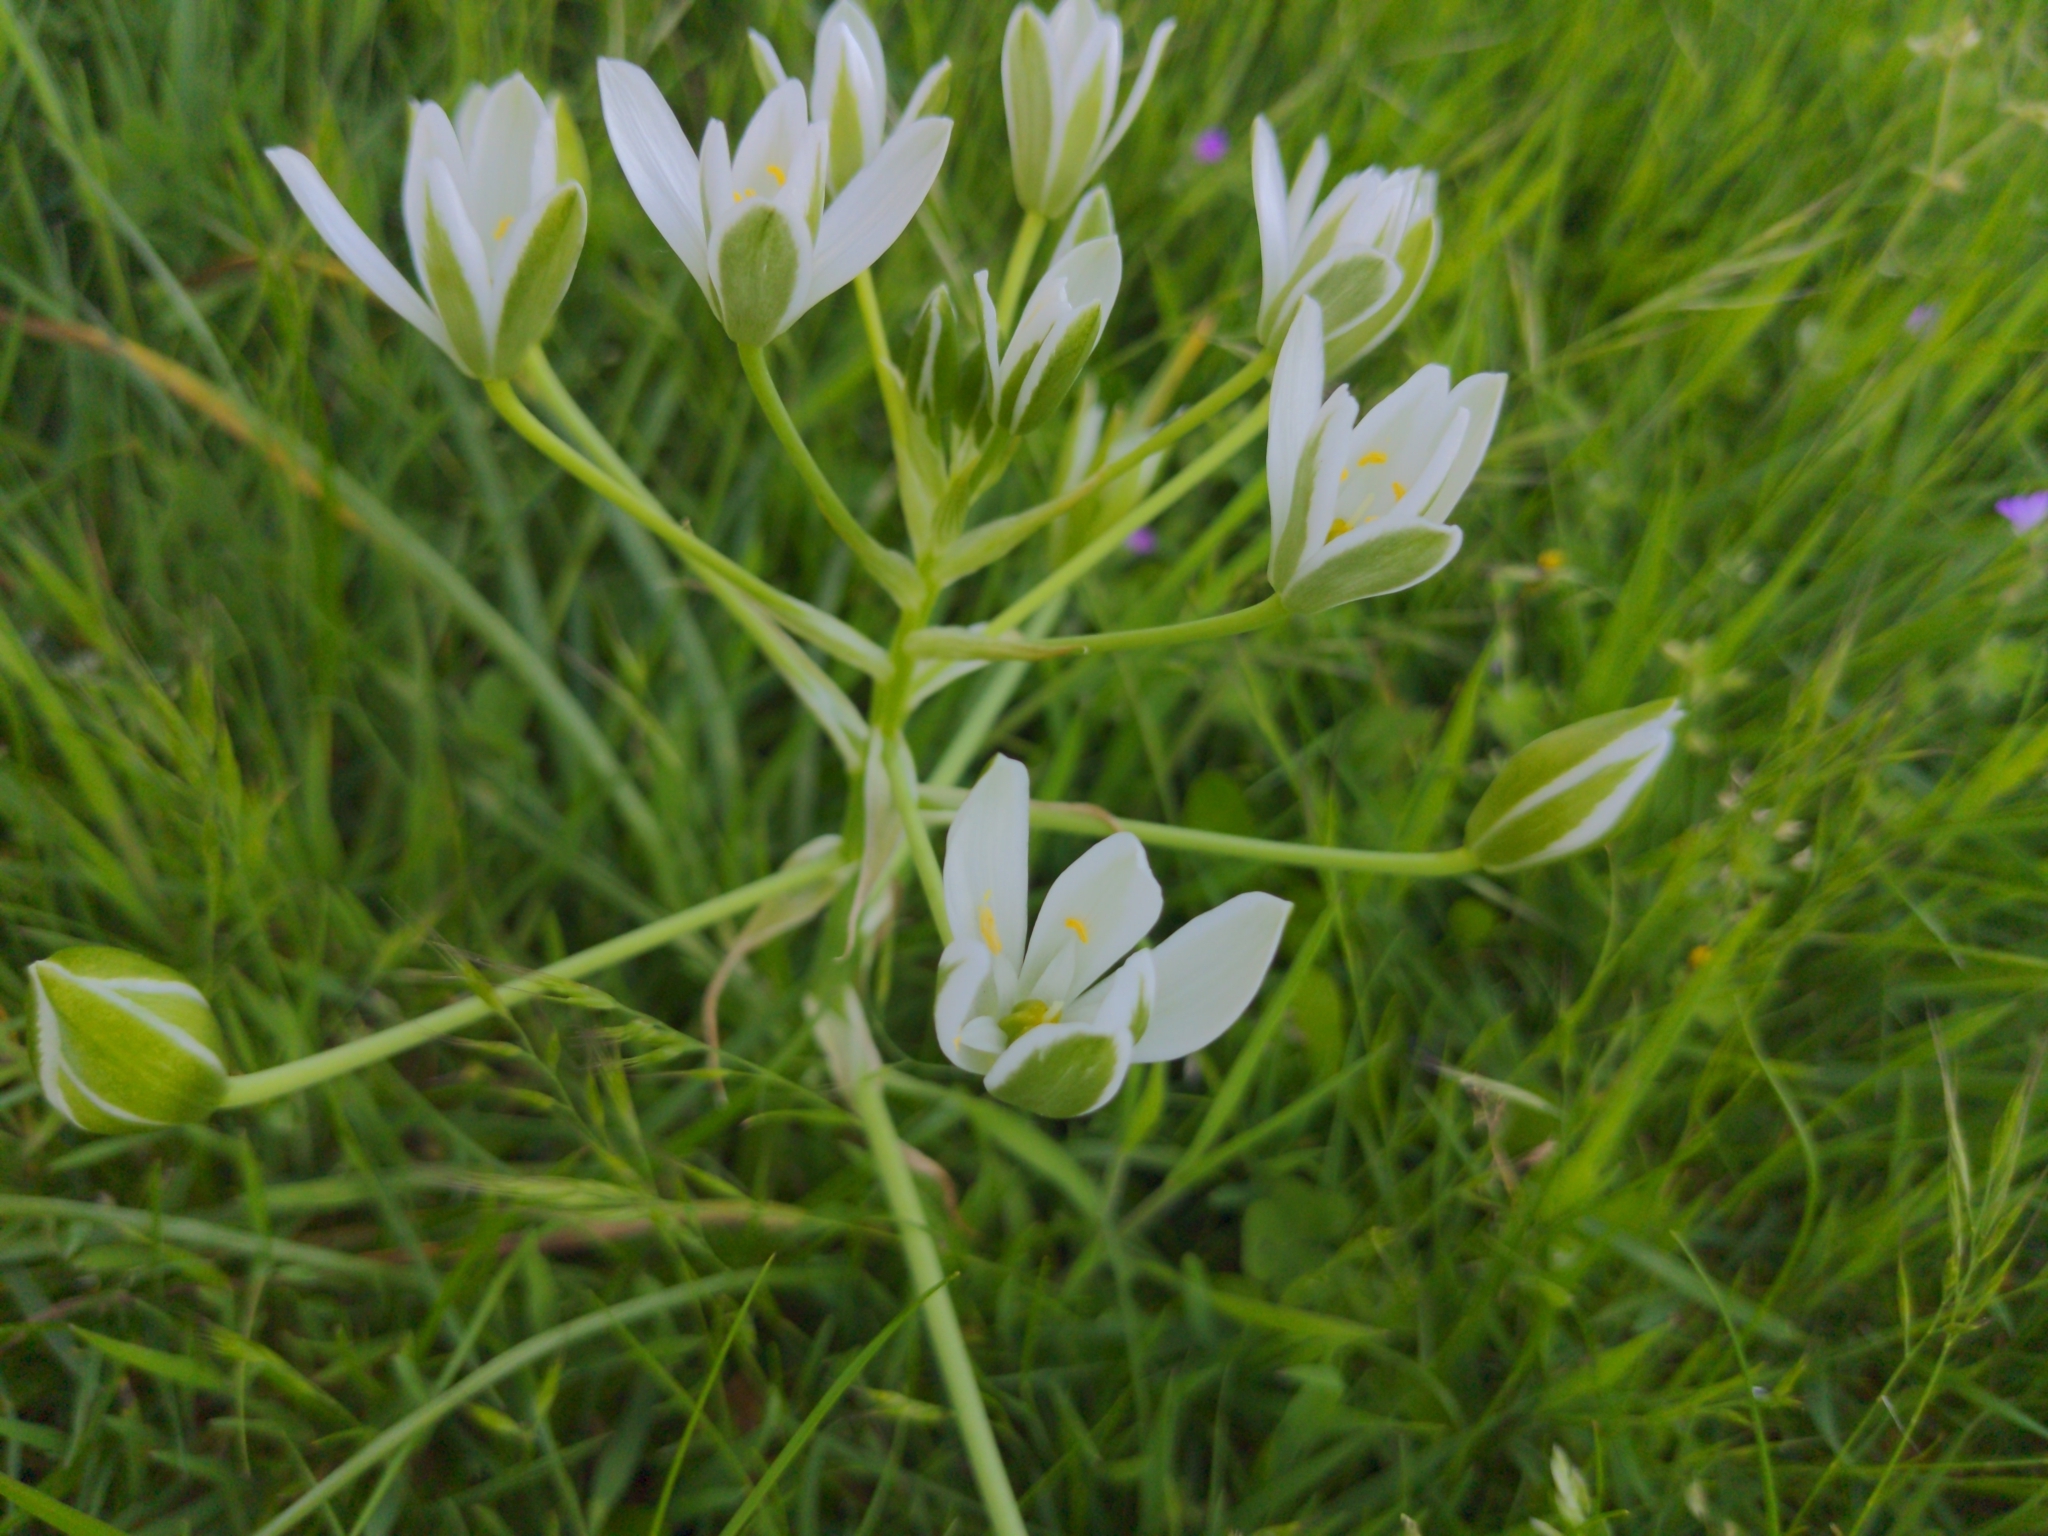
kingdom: Plantae
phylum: Tracheophyta
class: Liliopsida
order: Asparagales
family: Asparagaceae
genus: Ornithogalum
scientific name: Ornithogalum umbellatum
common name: Garden star-of-bethlehem
